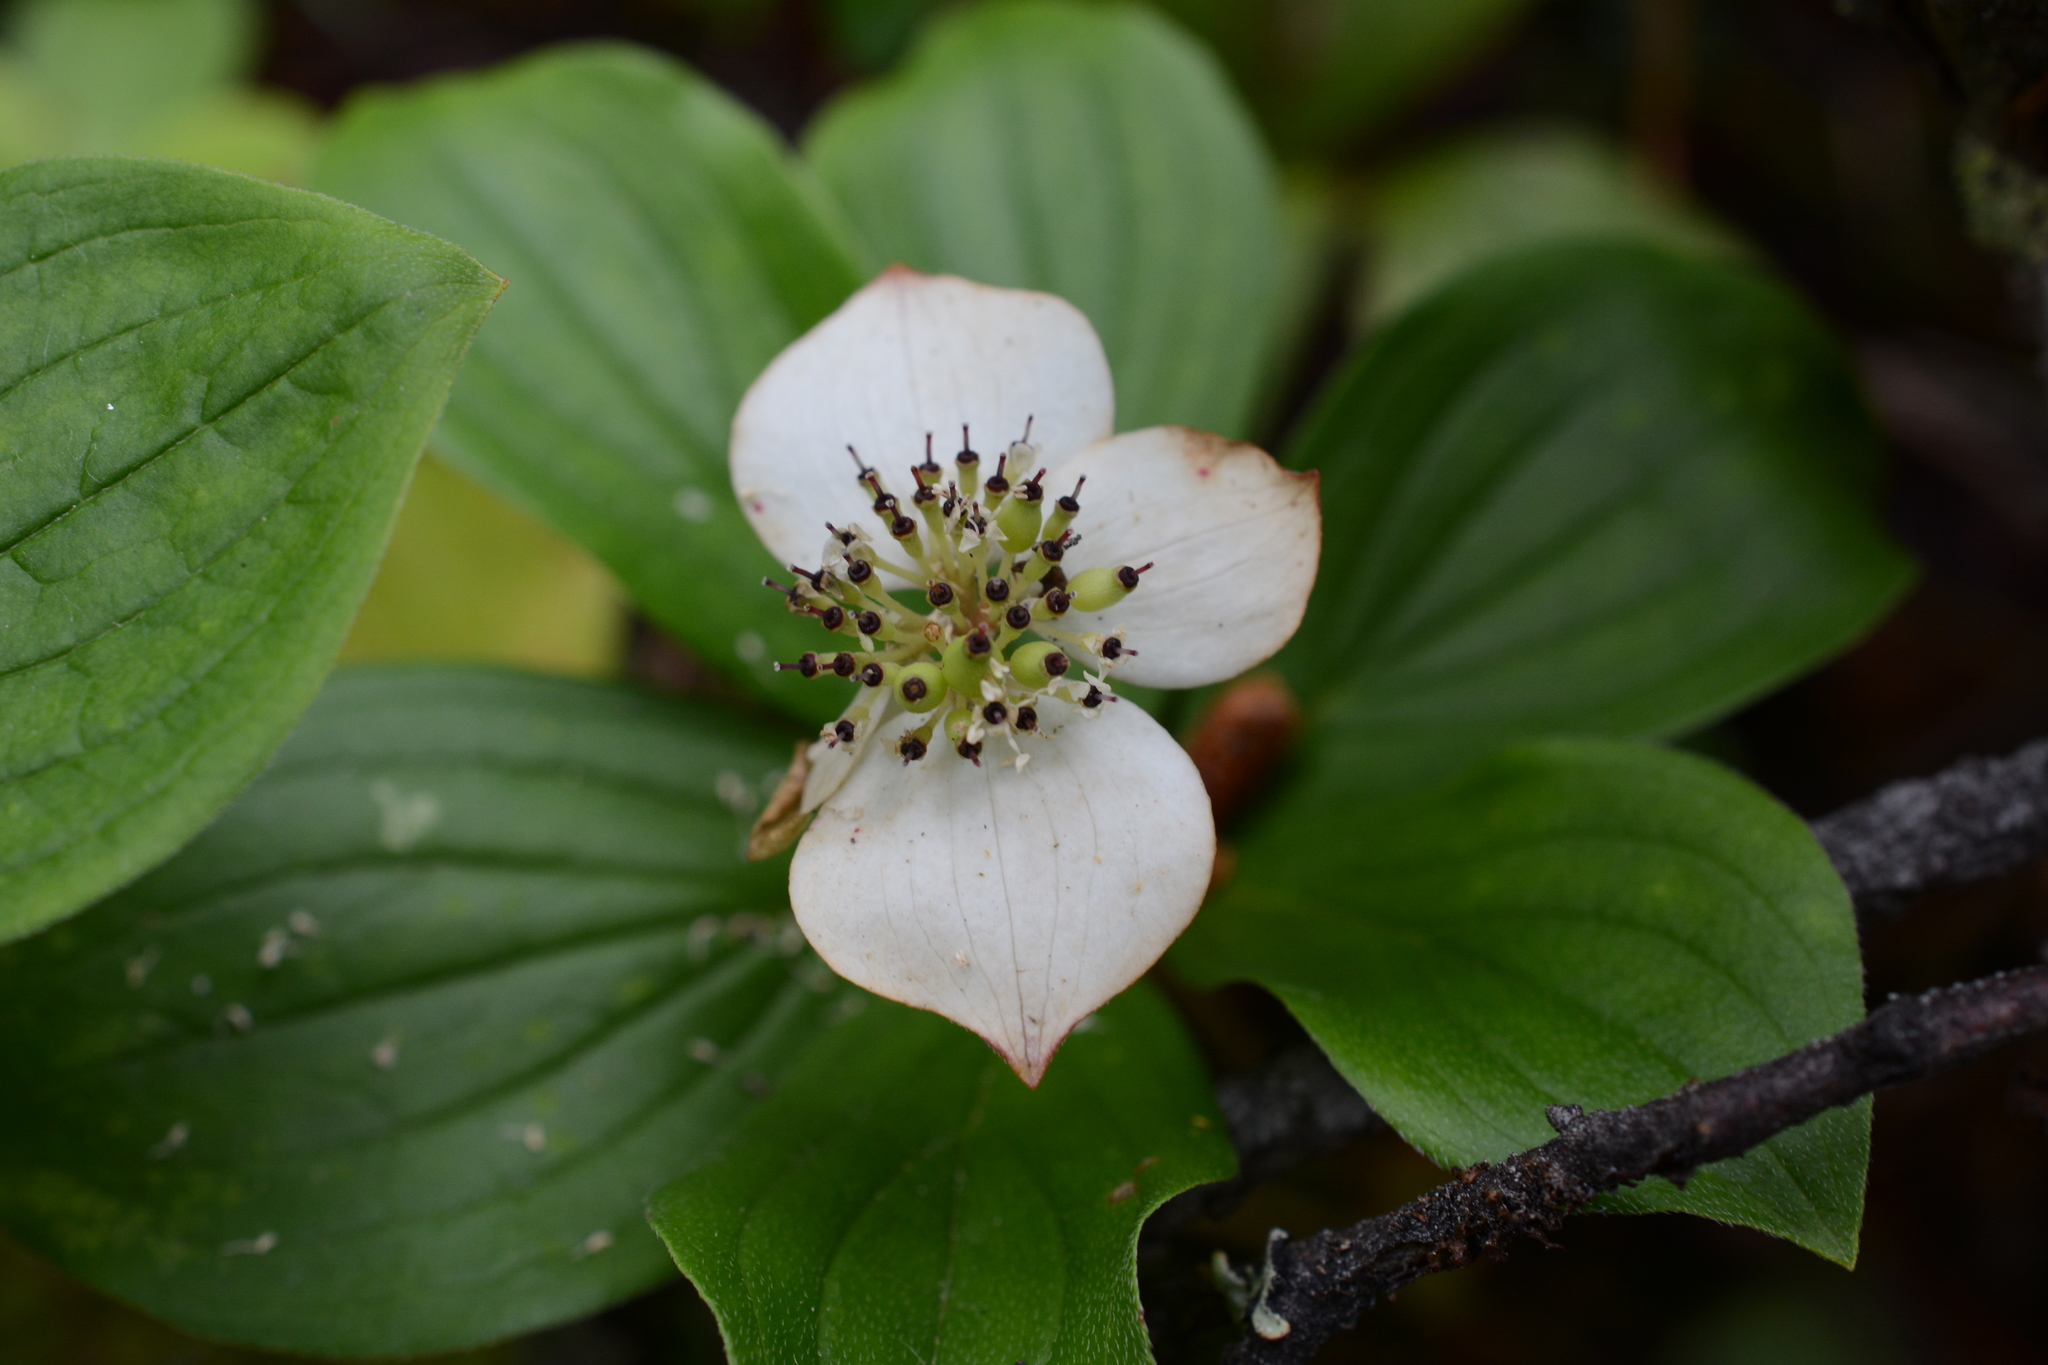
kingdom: Plantae
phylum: Tracheophyta
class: Magnoliopsida
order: Cornales
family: Cornaceae
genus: Cornus
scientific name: Cornus canadensis
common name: Creeping dogwood
